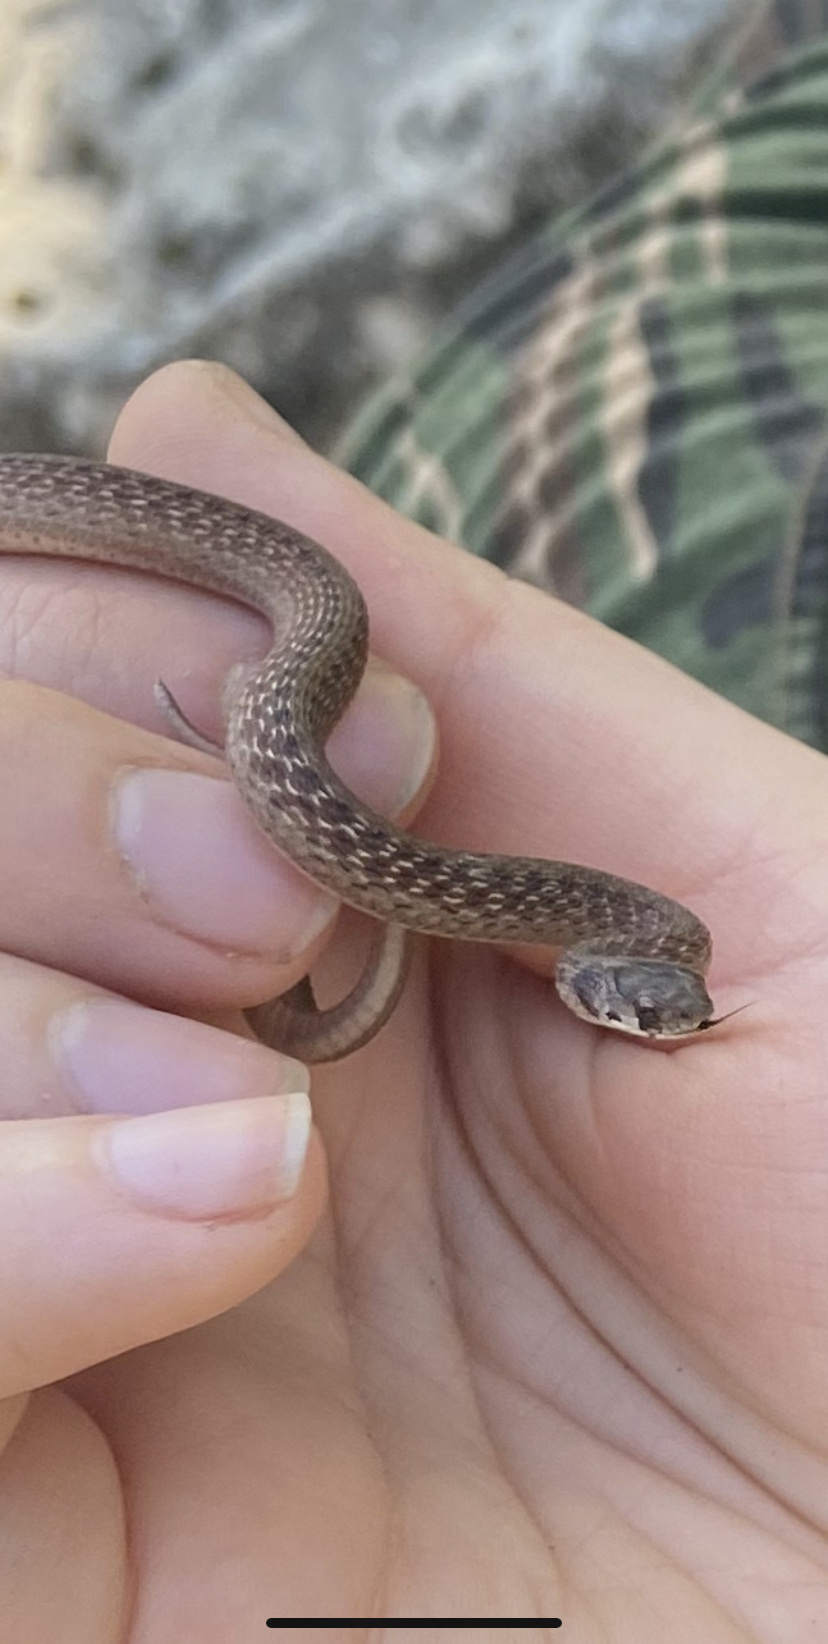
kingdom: Animalia
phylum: Chordata
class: Squamata
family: Colubridae
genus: Storeria
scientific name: Storeria dekayi
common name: (dekay’s) brown snake
